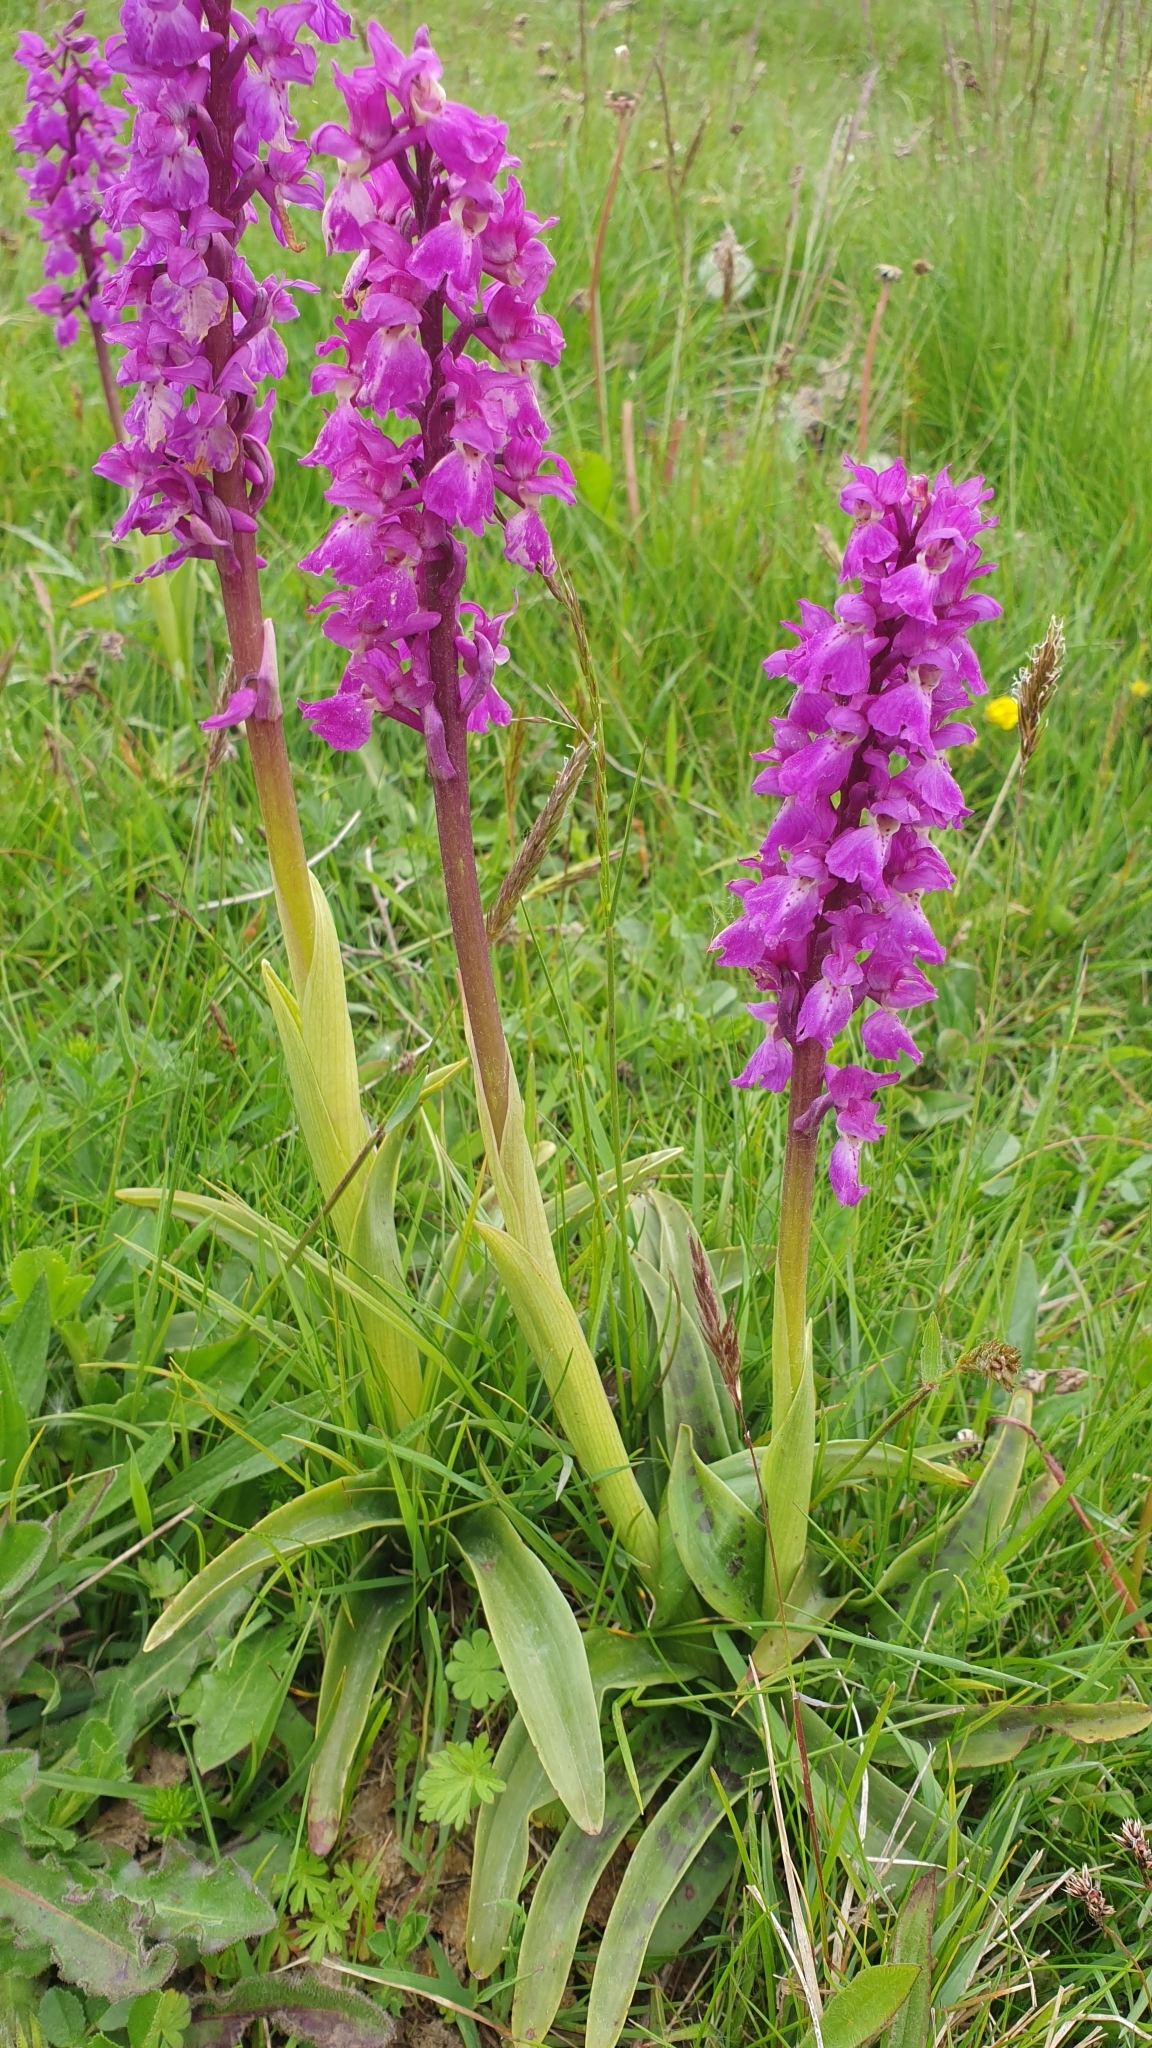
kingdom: Plantae
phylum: Tracheophyta
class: Liliopsida
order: Asparagales
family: Orchidaceae
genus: Orchis
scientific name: Orchis mascula
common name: Early-purple orchid
